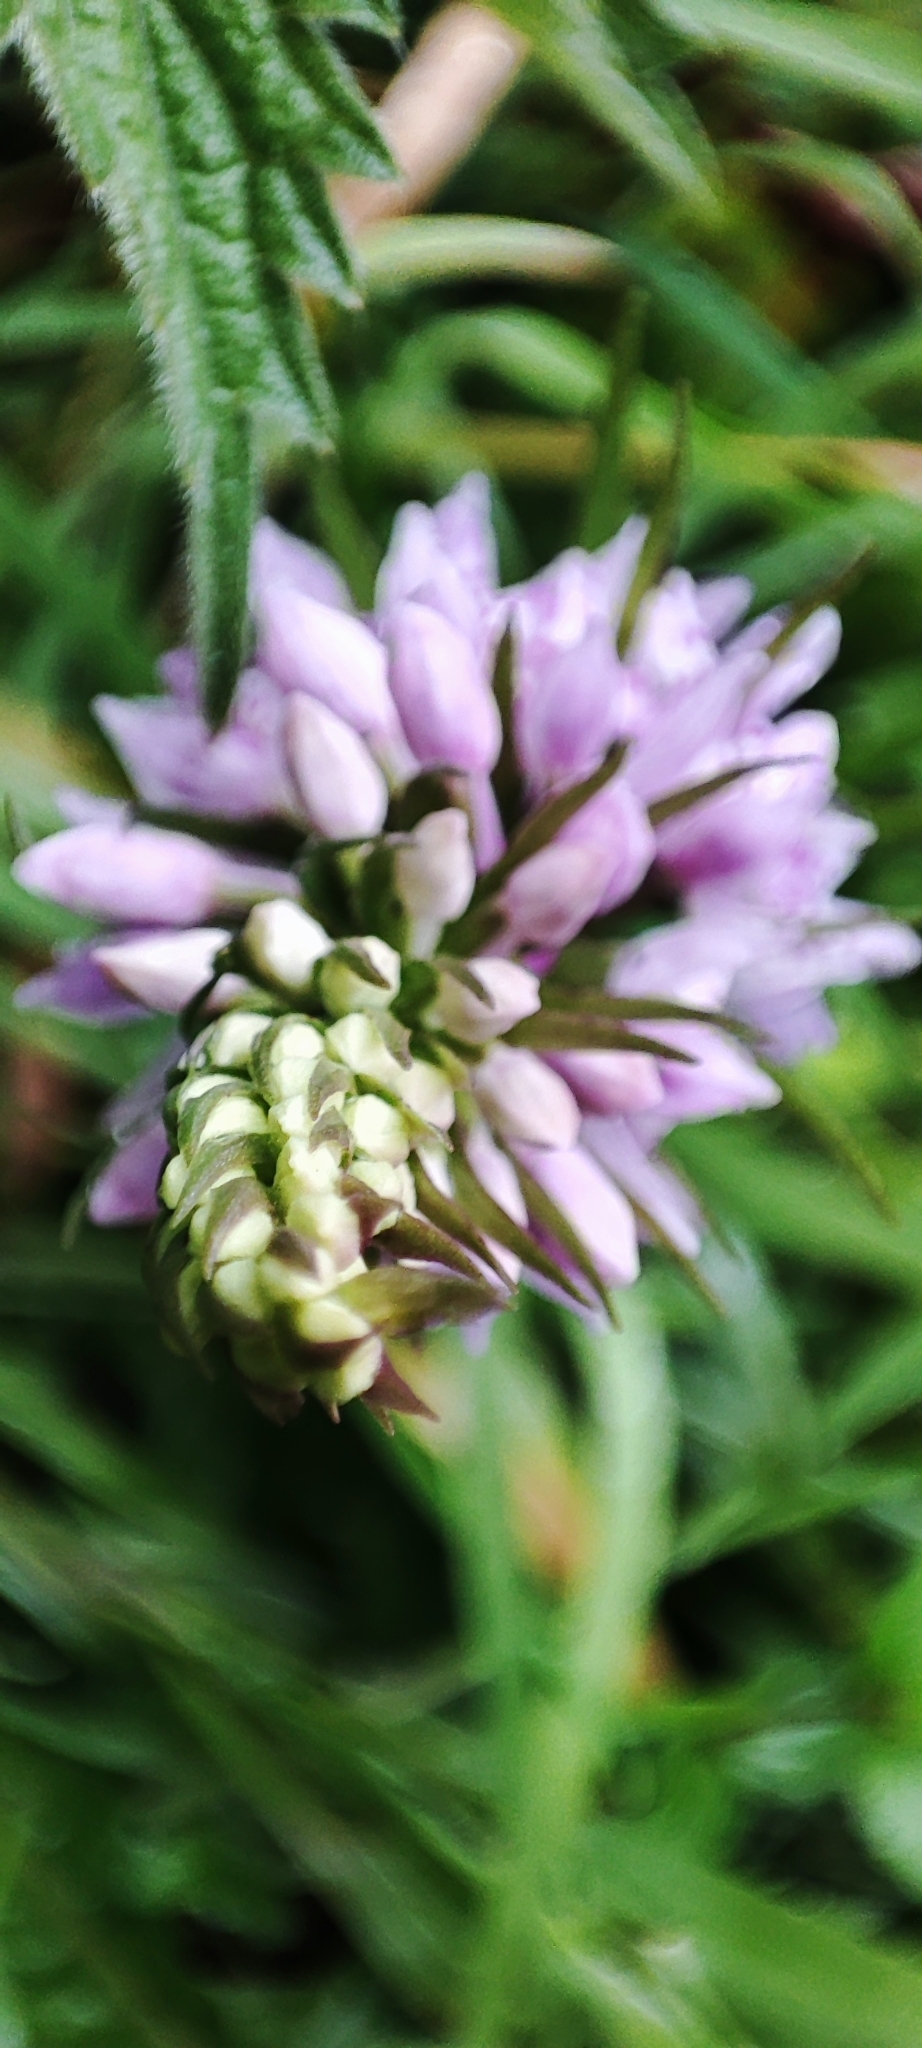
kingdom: Plantae
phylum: Tracheophyta
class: Liliopsida
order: Asparagales
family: Orchidaceae
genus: Dactylorhiza
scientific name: Dactylorhiza maculata
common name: Heath spotted-orchid
